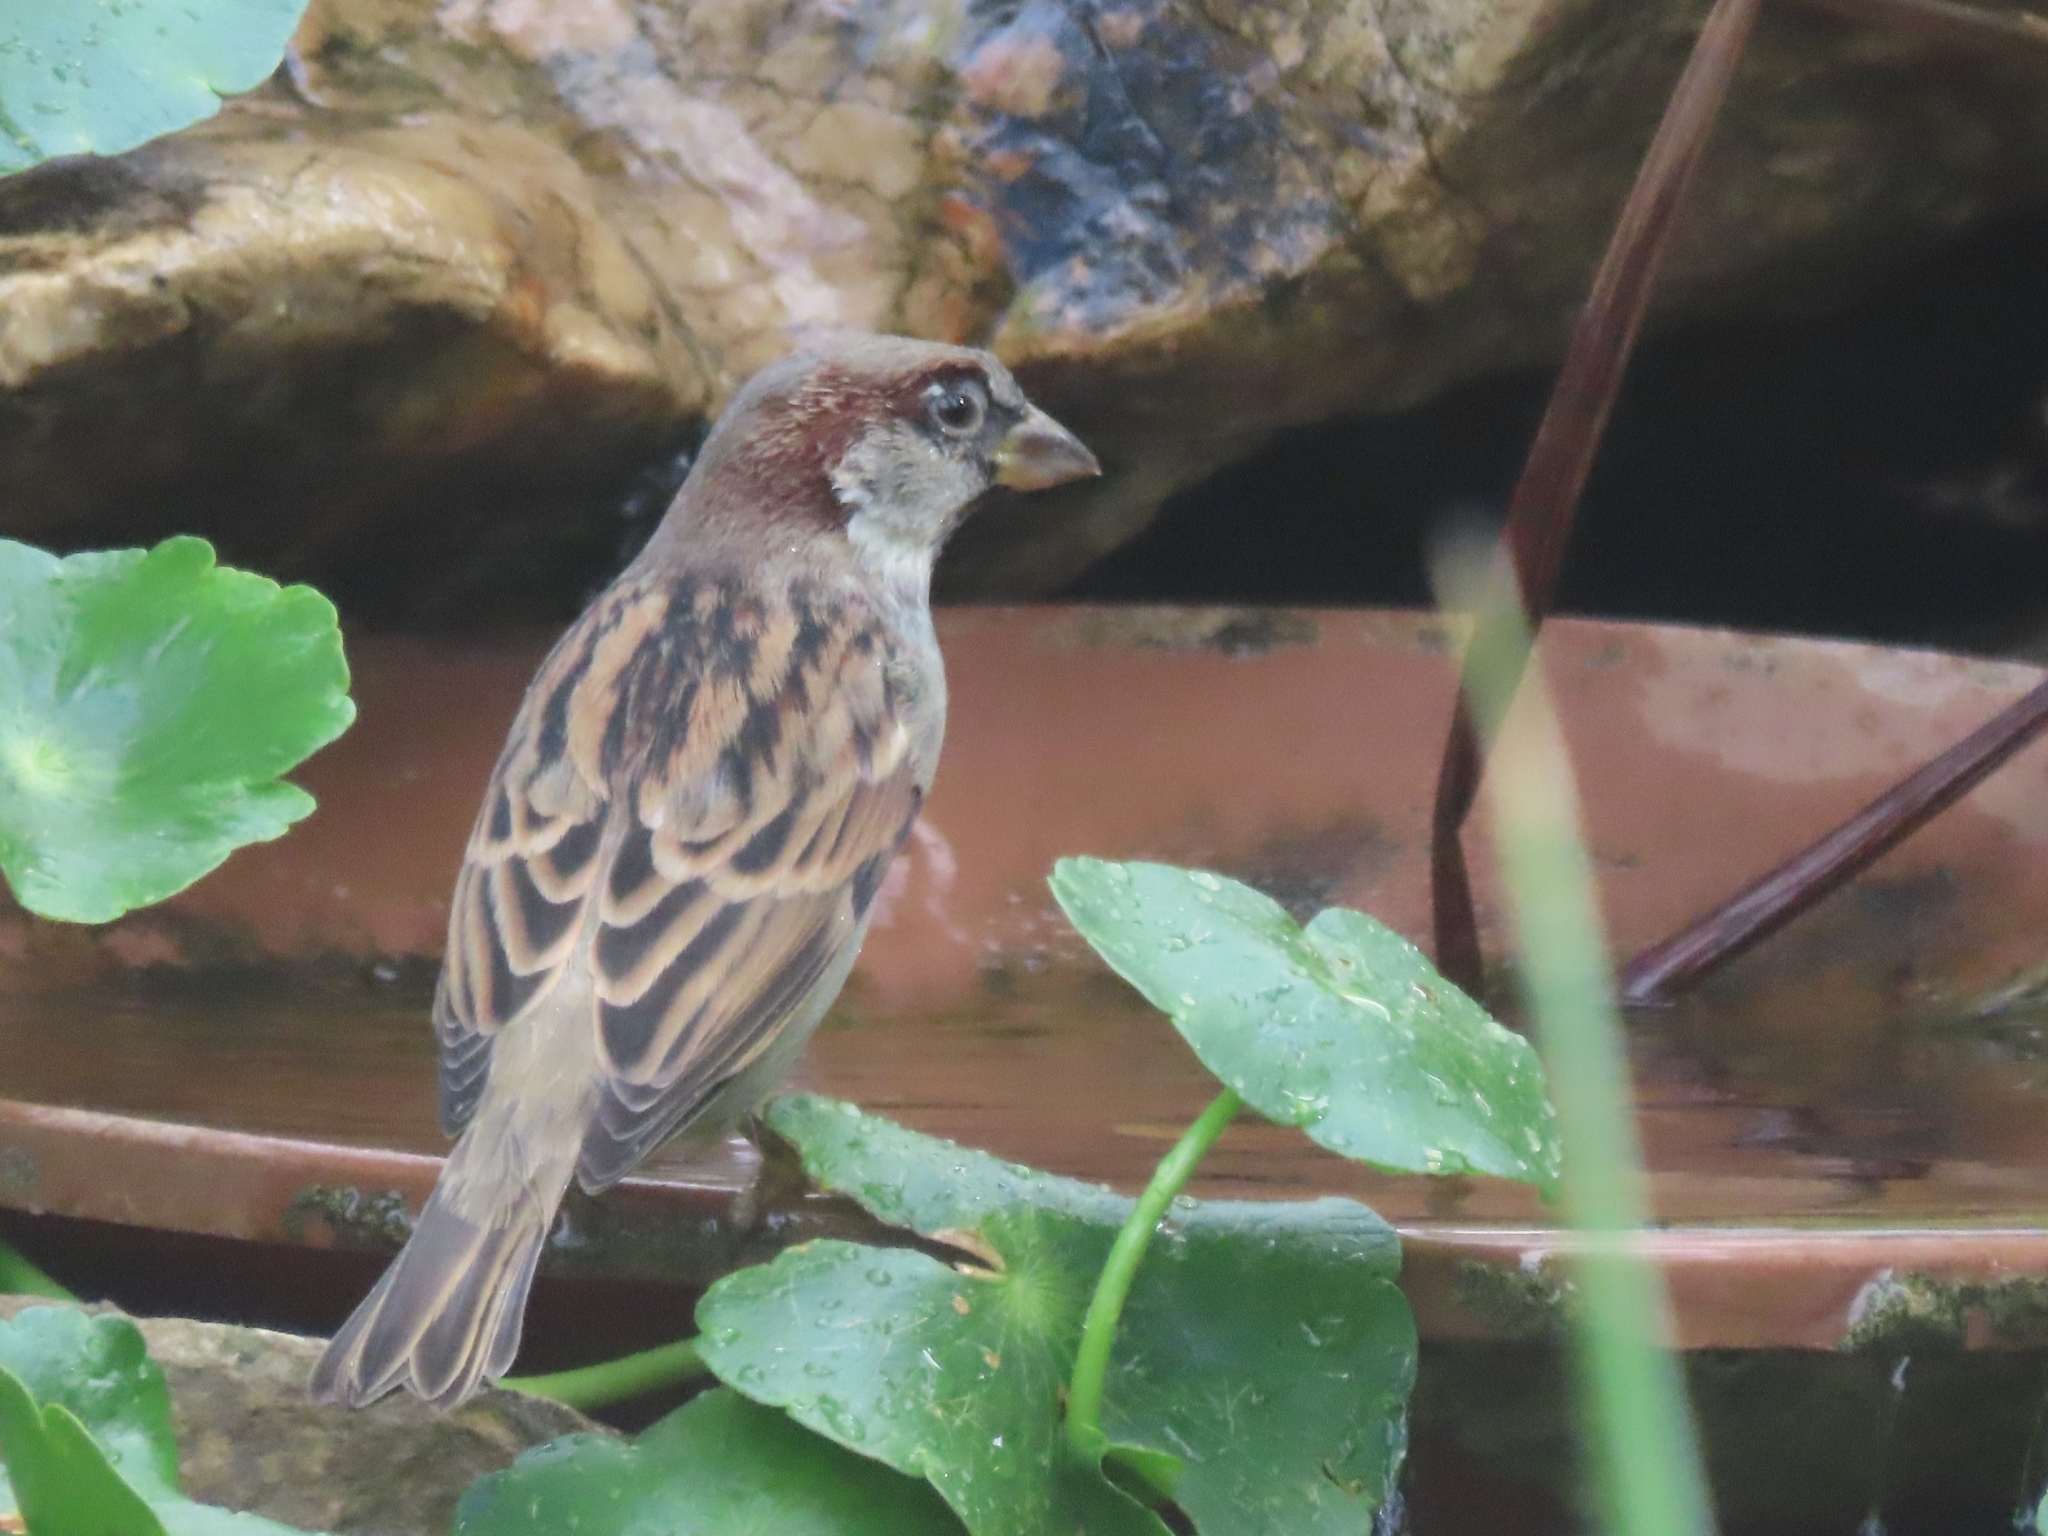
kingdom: Animalia
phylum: Chordata
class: Aves
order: Passeriformes
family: Passeridae
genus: Passer
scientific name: Passer domesticus
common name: House sparrow
